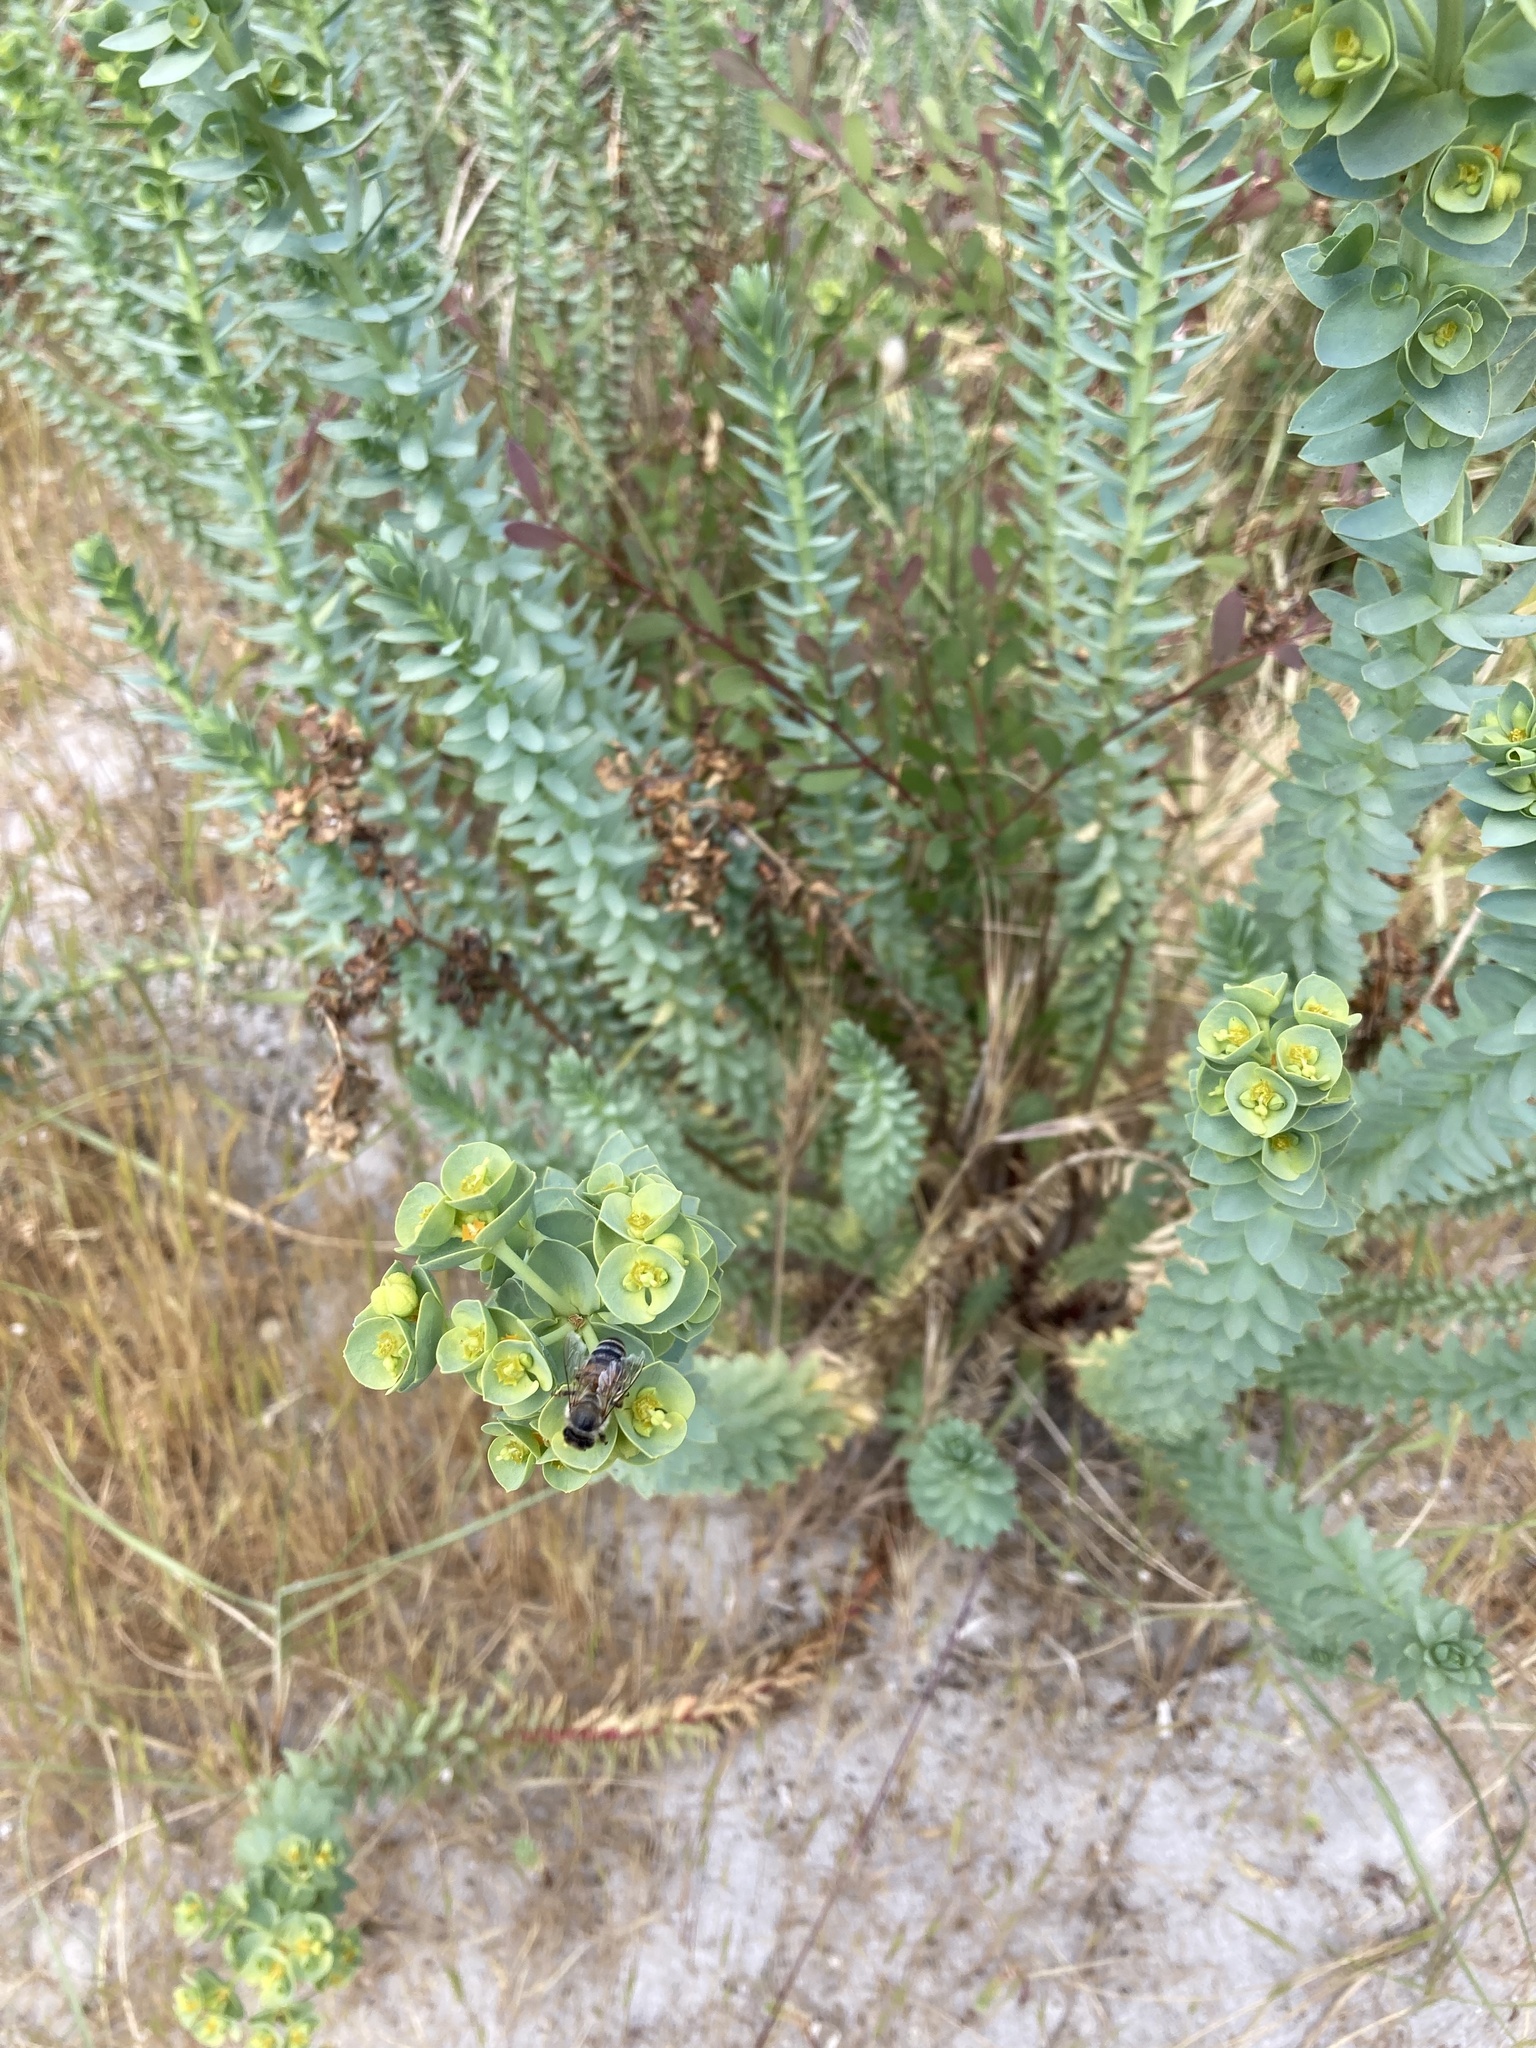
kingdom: Plantae
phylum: Tracheophyta
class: Magnoliopsida
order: Malpighiales
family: Euphorbiaceae
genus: Euphorbia
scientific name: Euphorbia paralias
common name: Sea spurge
